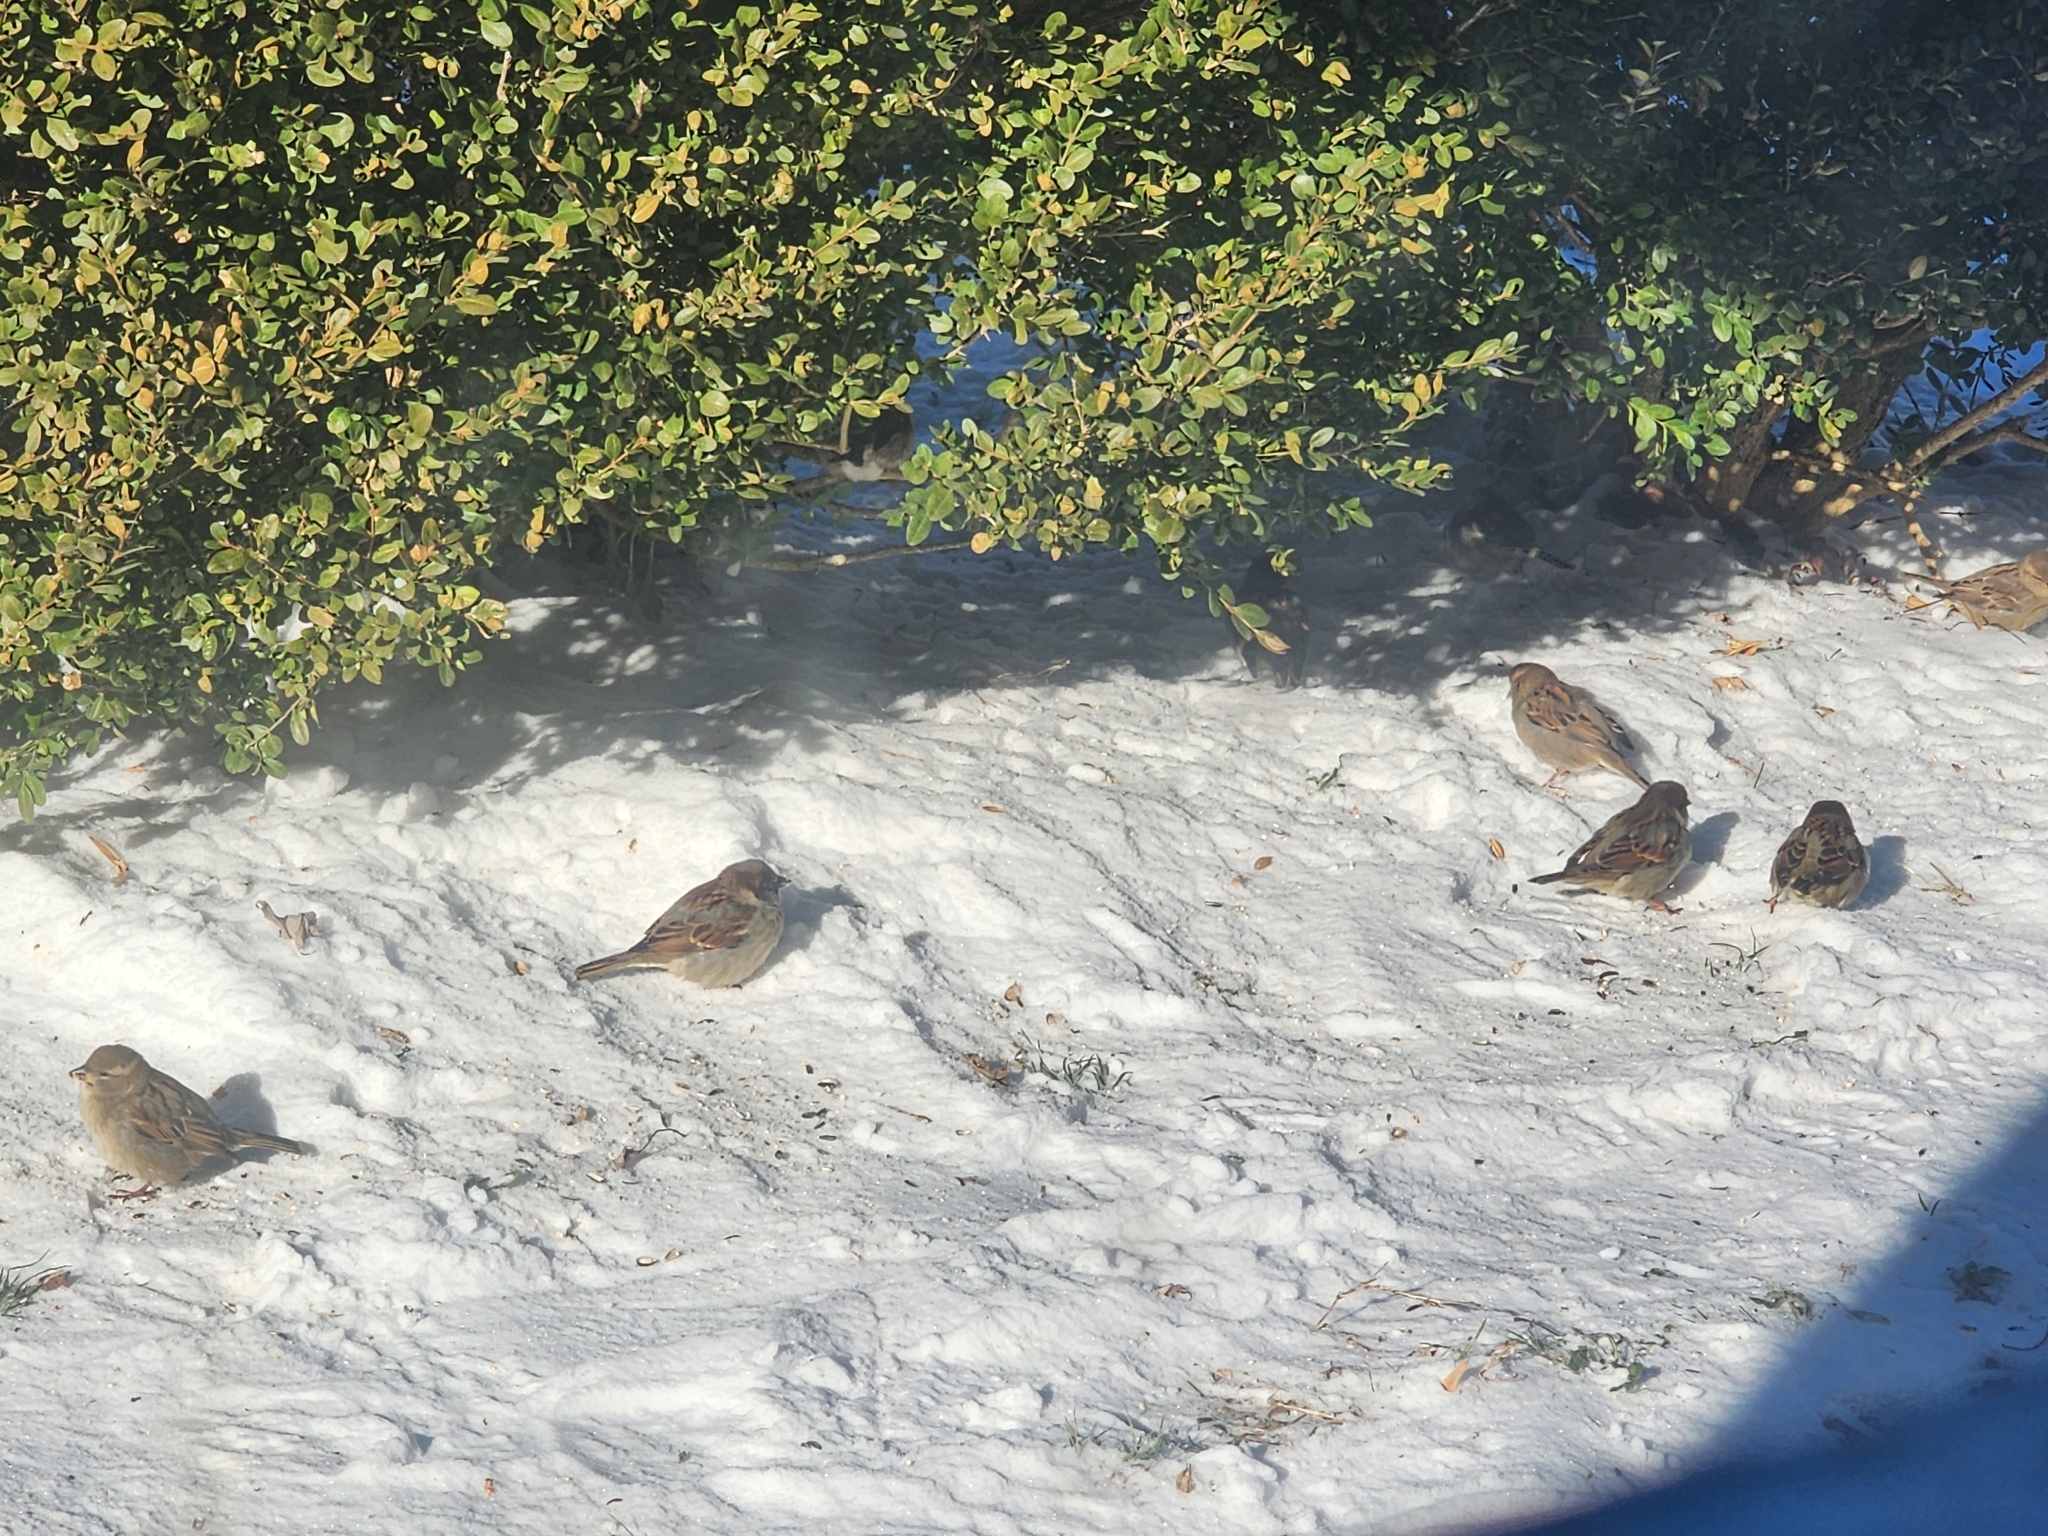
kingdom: Animalia
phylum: Chordata
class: Aves
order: Passeriformes
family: Passeridae
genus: Passer
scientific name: Passer domesticus
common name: House sparrow
